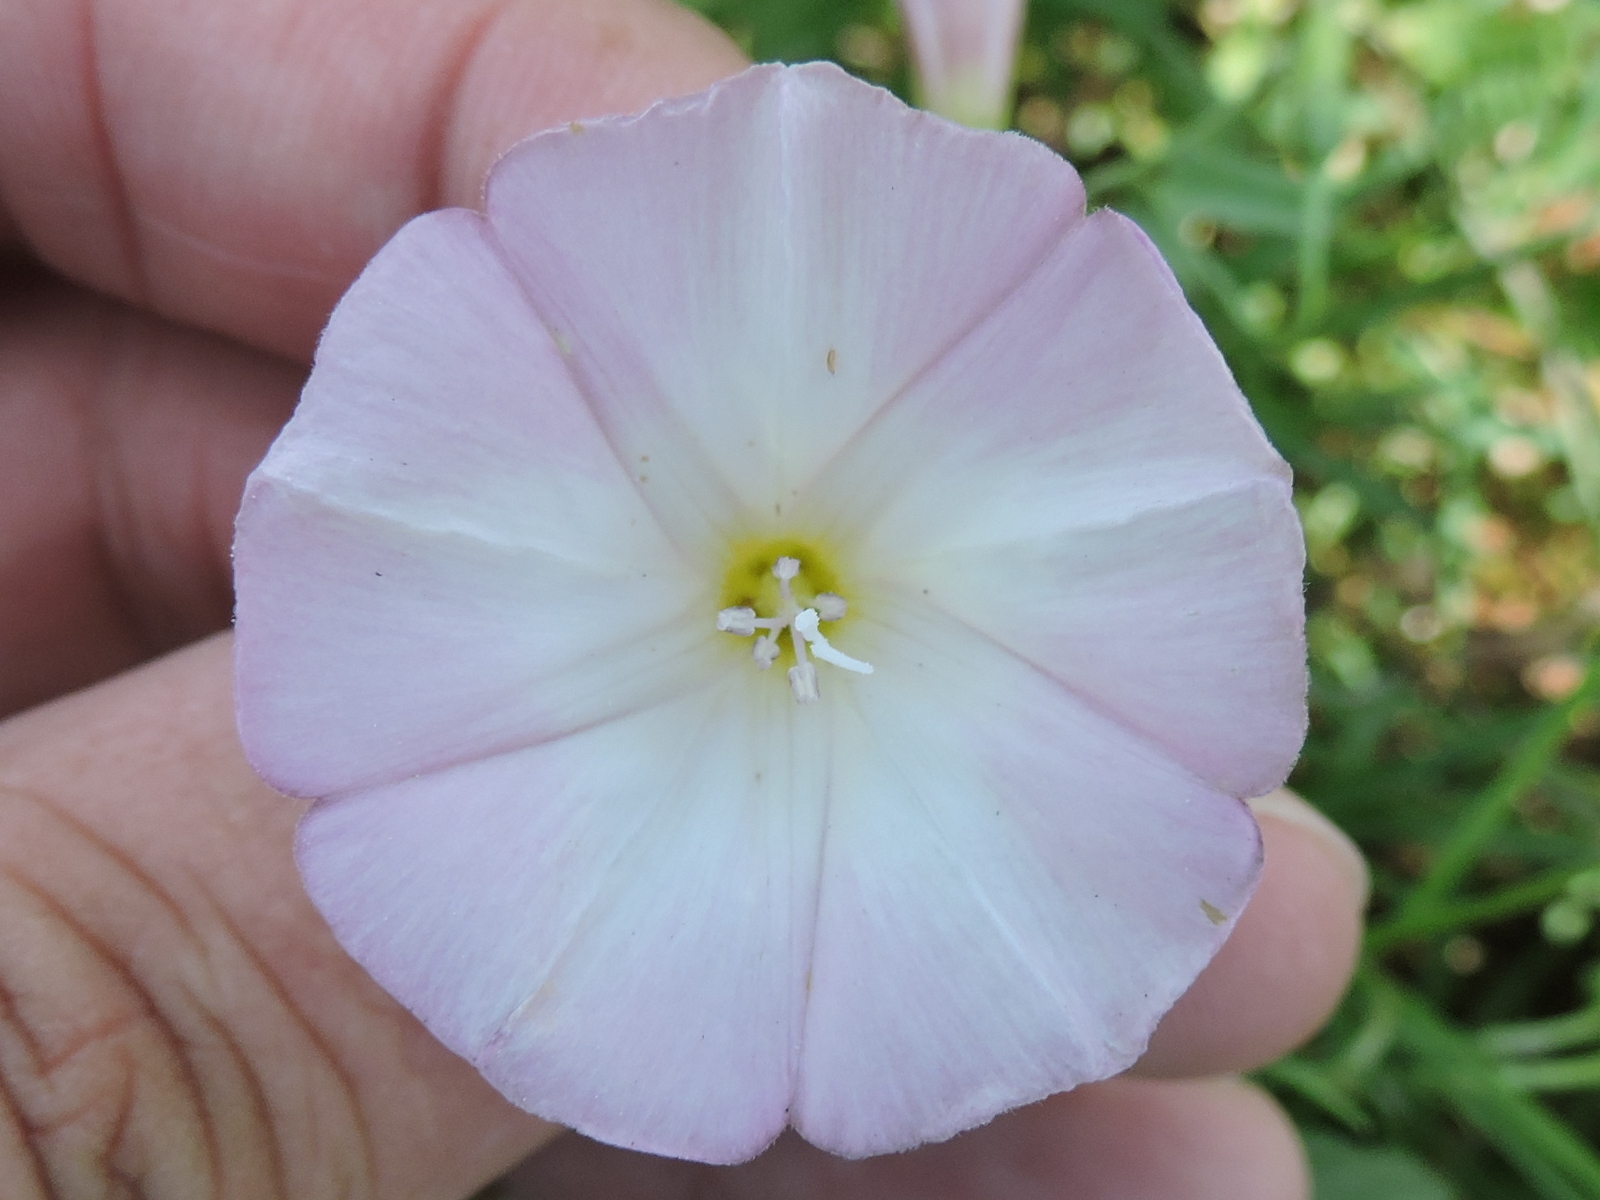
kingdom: Plantae
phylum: Tracheophyta
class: Magnoliopsida
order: Solanales
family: Convolvulaceae
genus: Convolvulus
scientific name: Convolvulus arvensis
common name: Field bindweed
